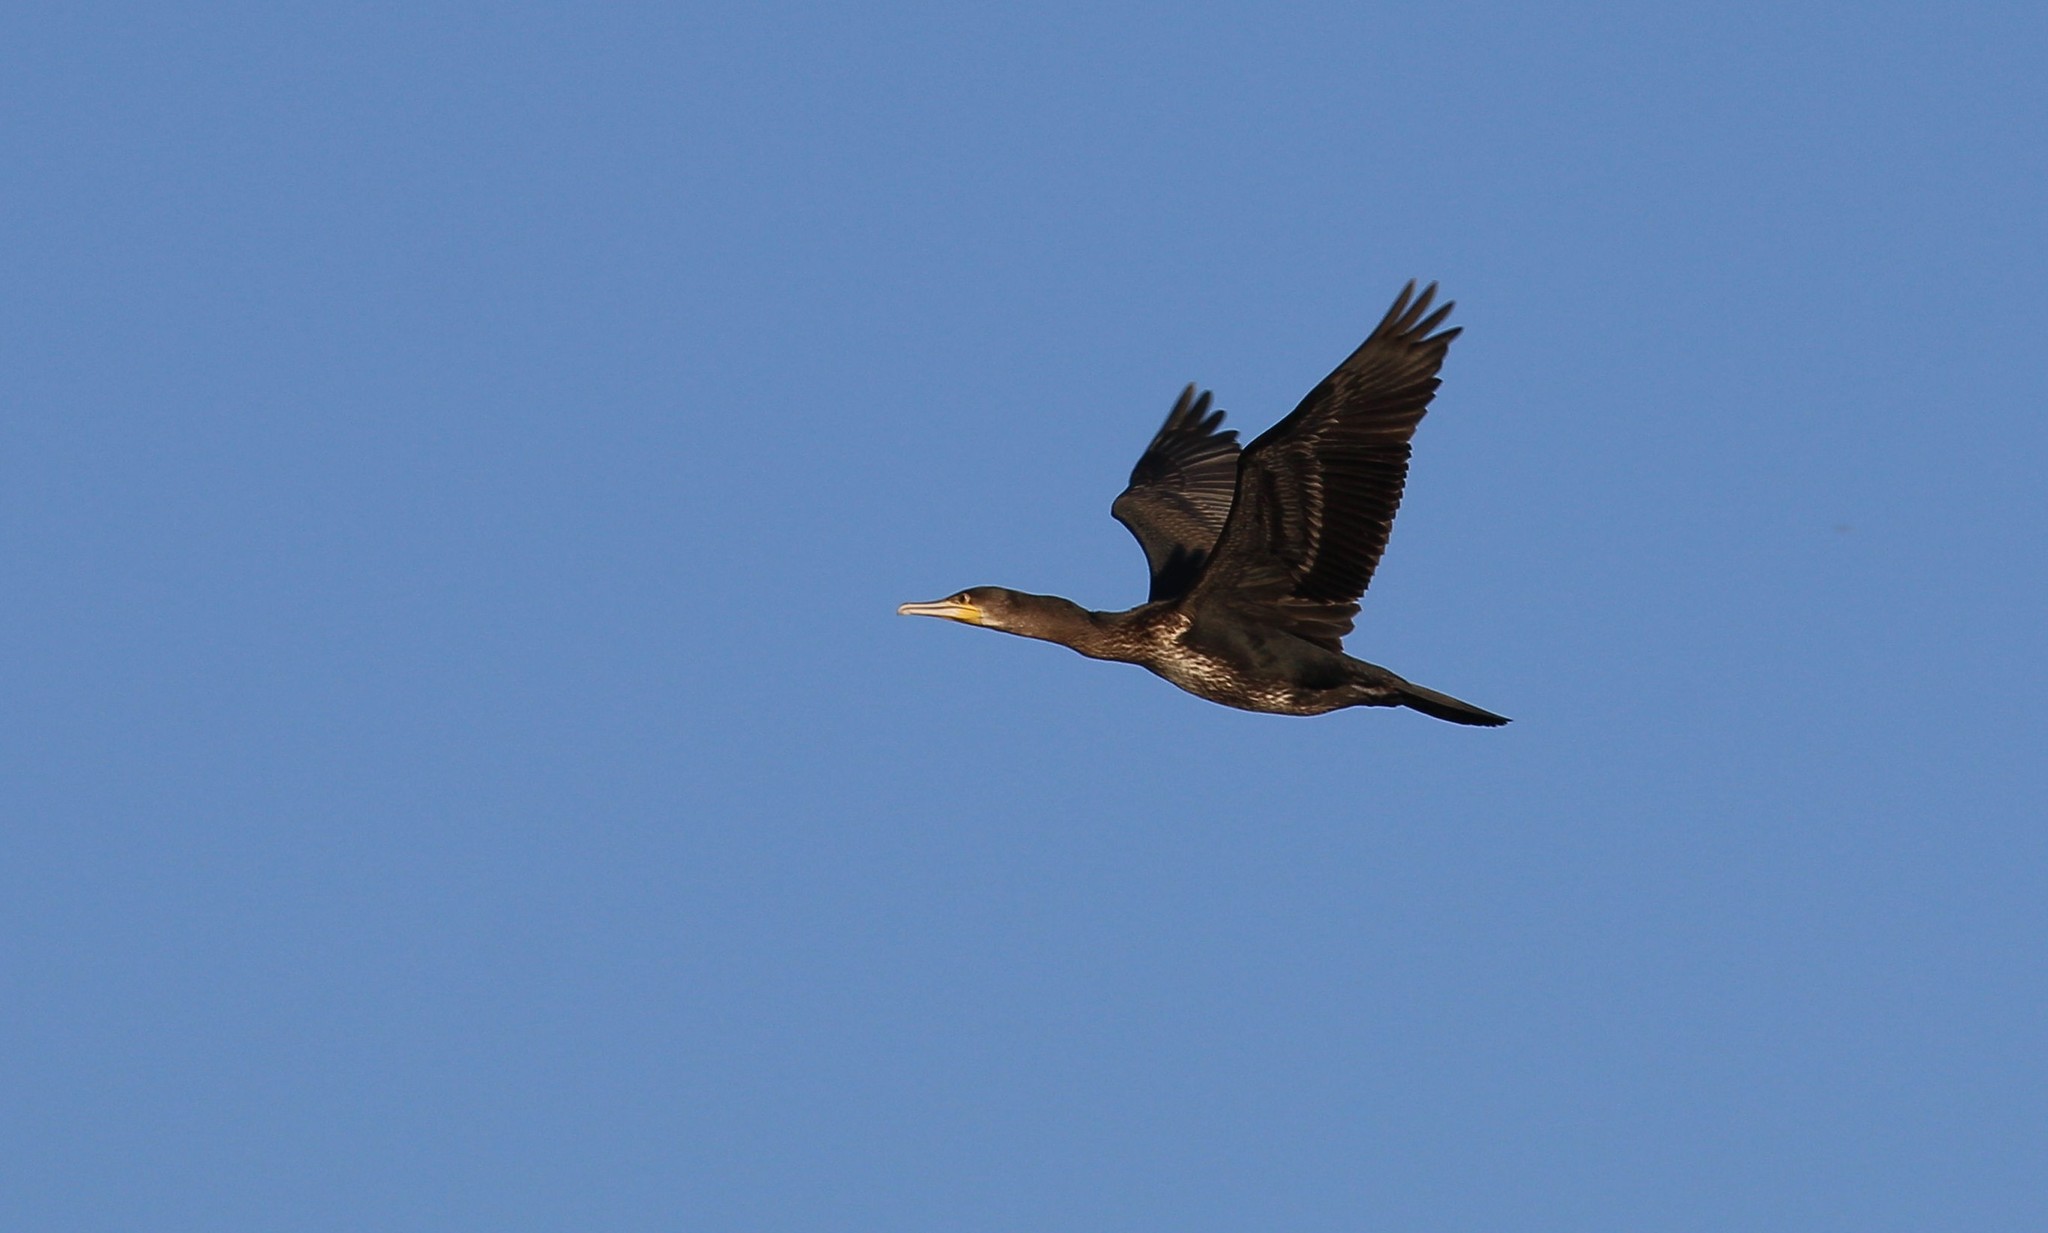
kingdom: Animalia
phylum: Chordata
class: Aves
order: Suliformes
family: Phalacrocoracidae
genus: Phalacrocorax
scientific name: Phalacrocorax carbo
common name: Great cormorant
